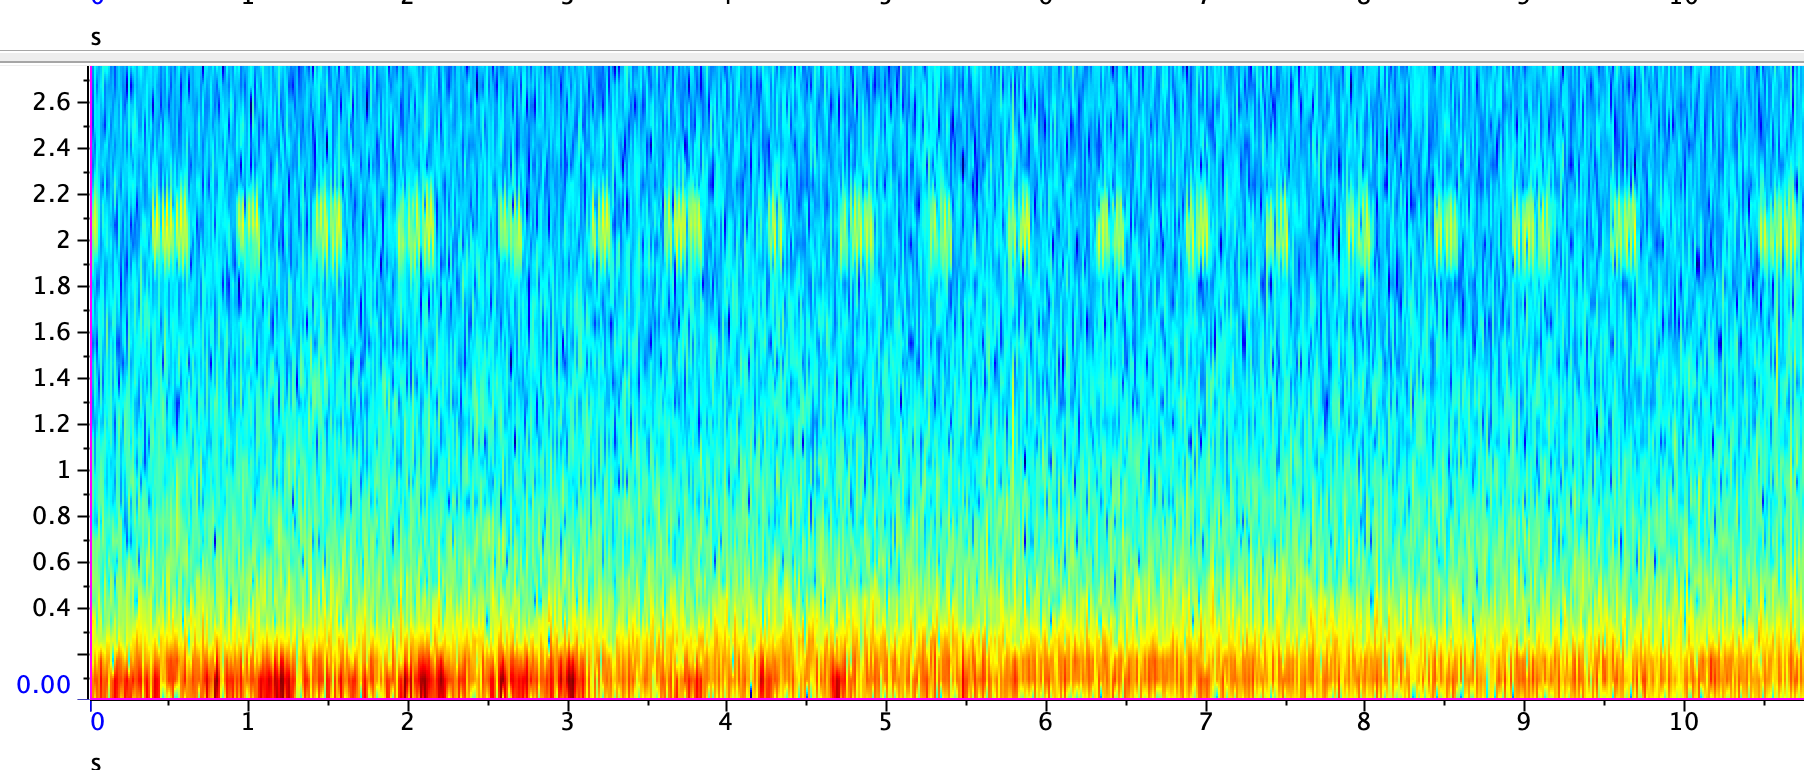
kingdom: Animalia
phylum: Arthropoda
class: Insecta
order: Orthoptera
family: Gryllidae
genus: Oecanthus
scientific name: Oecanthus fultoni
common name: Snowy tree cricket
